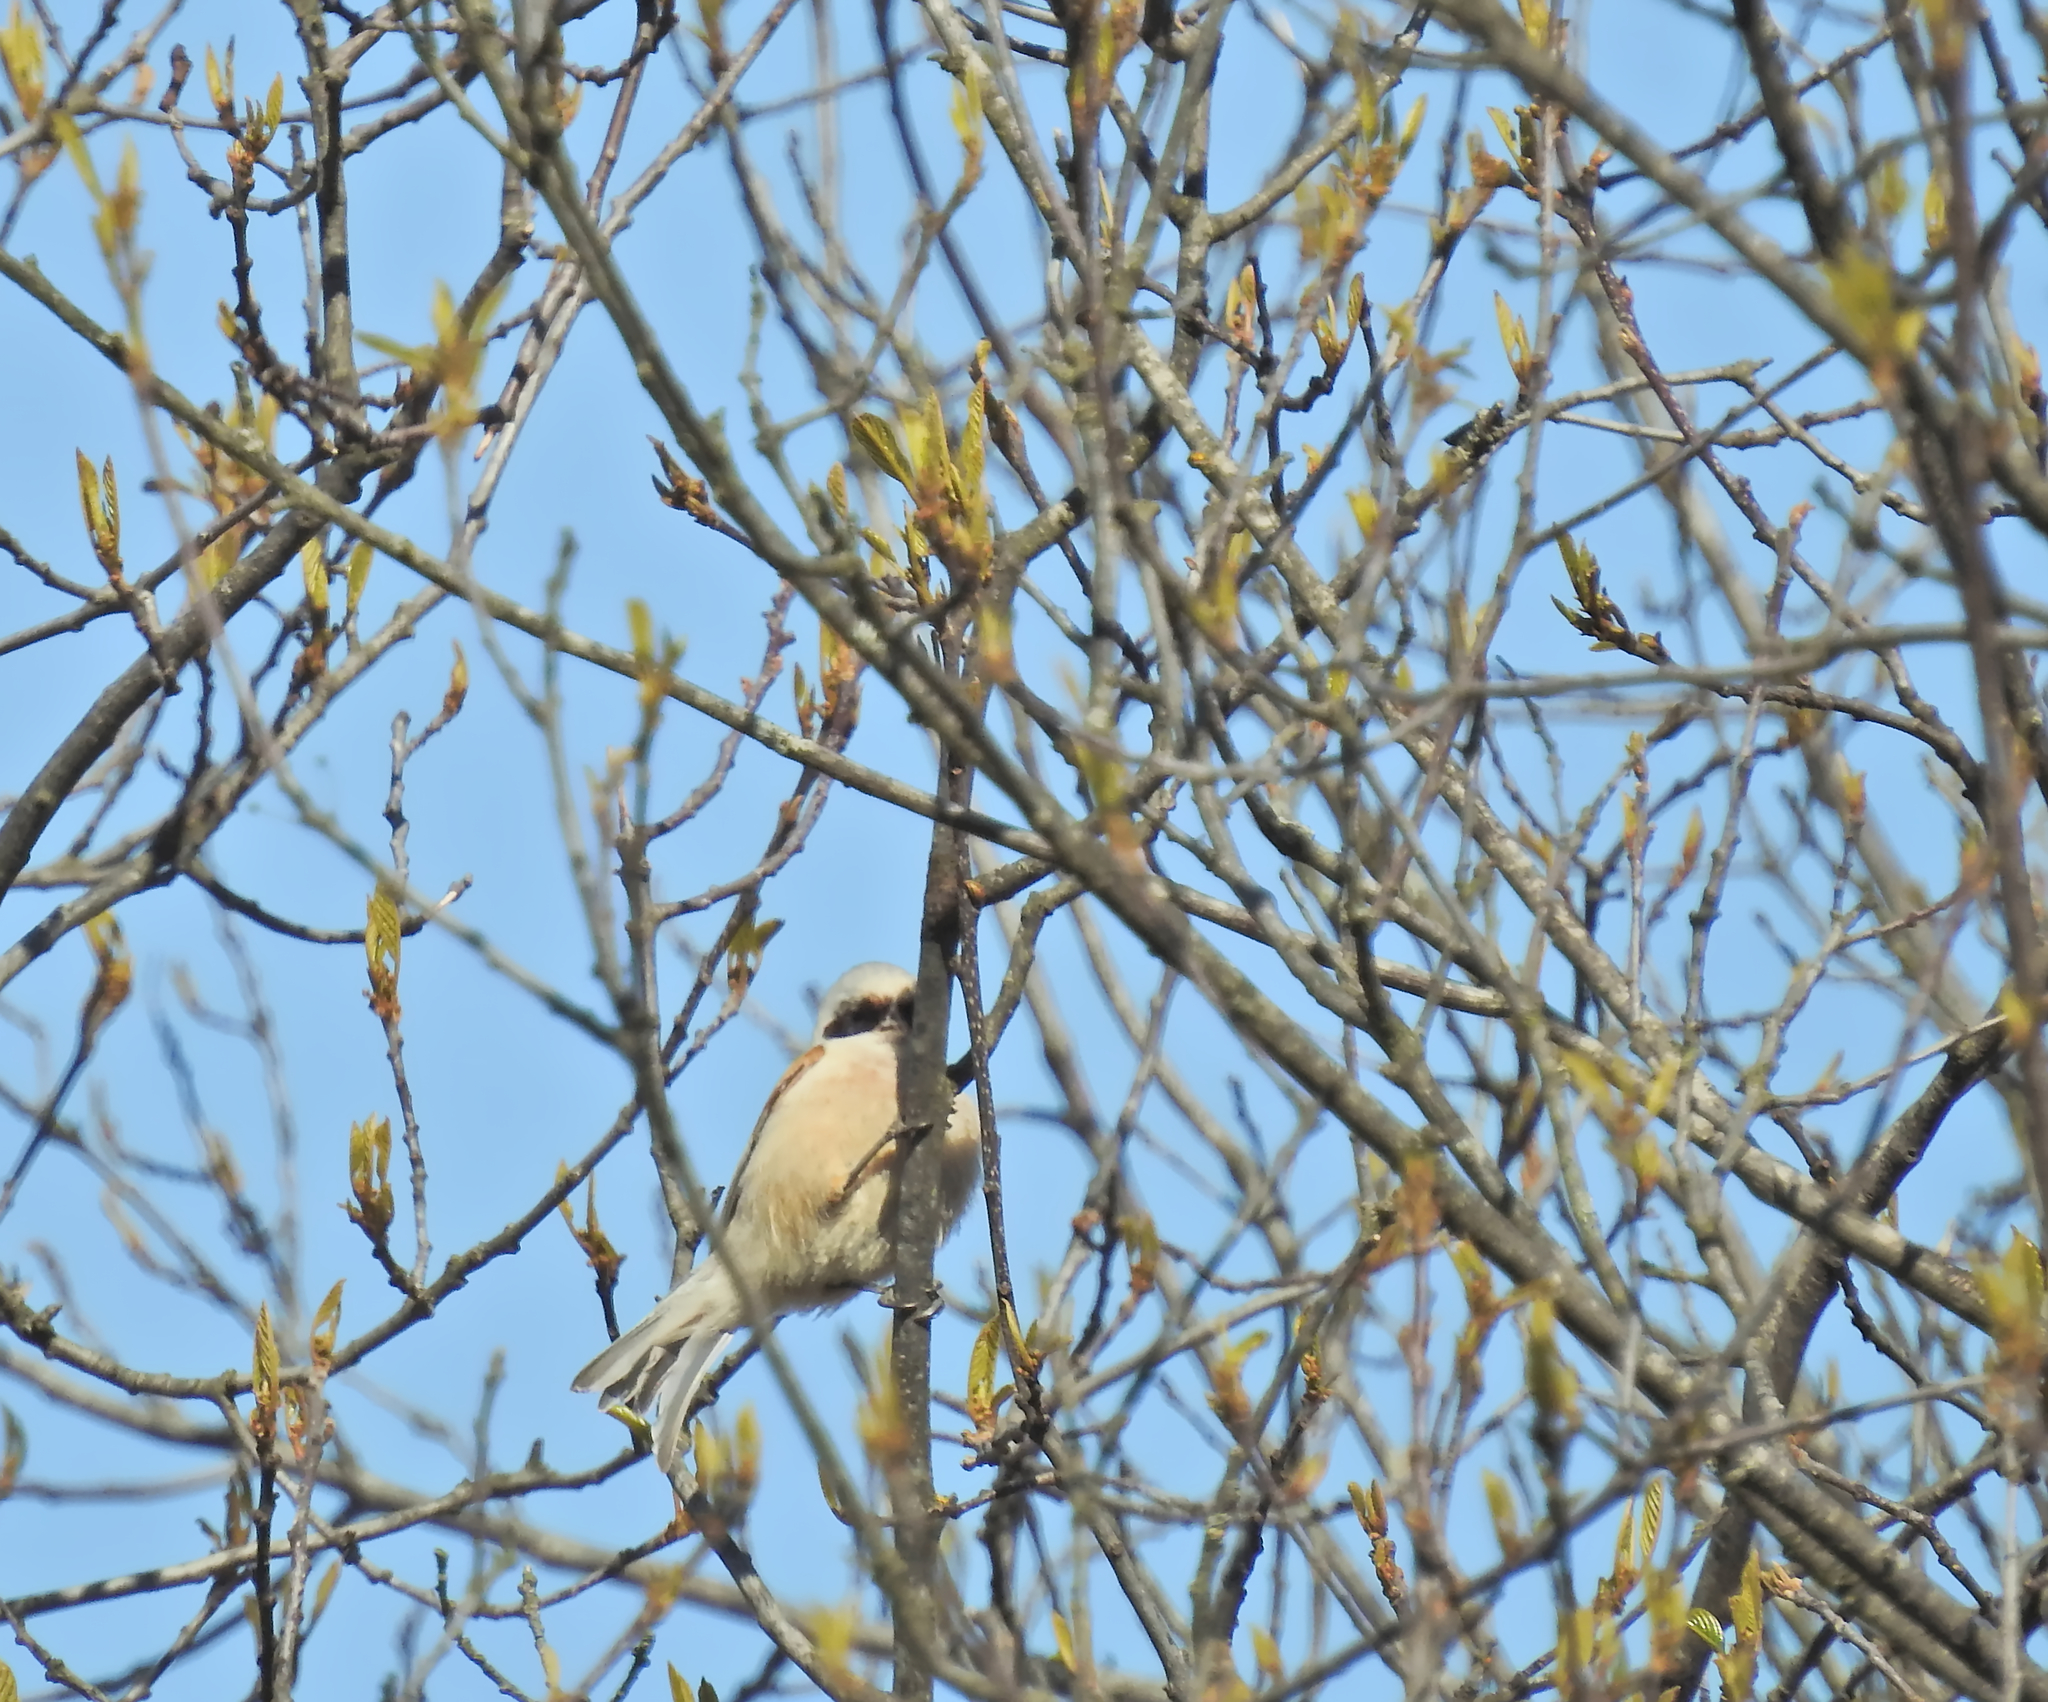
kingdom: Animalia
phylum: Chordata
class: Aves
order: Passeriformes
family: Remizidae
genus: Remiz
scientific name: Remiz pendulinus
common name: Eurasian penduline tit
